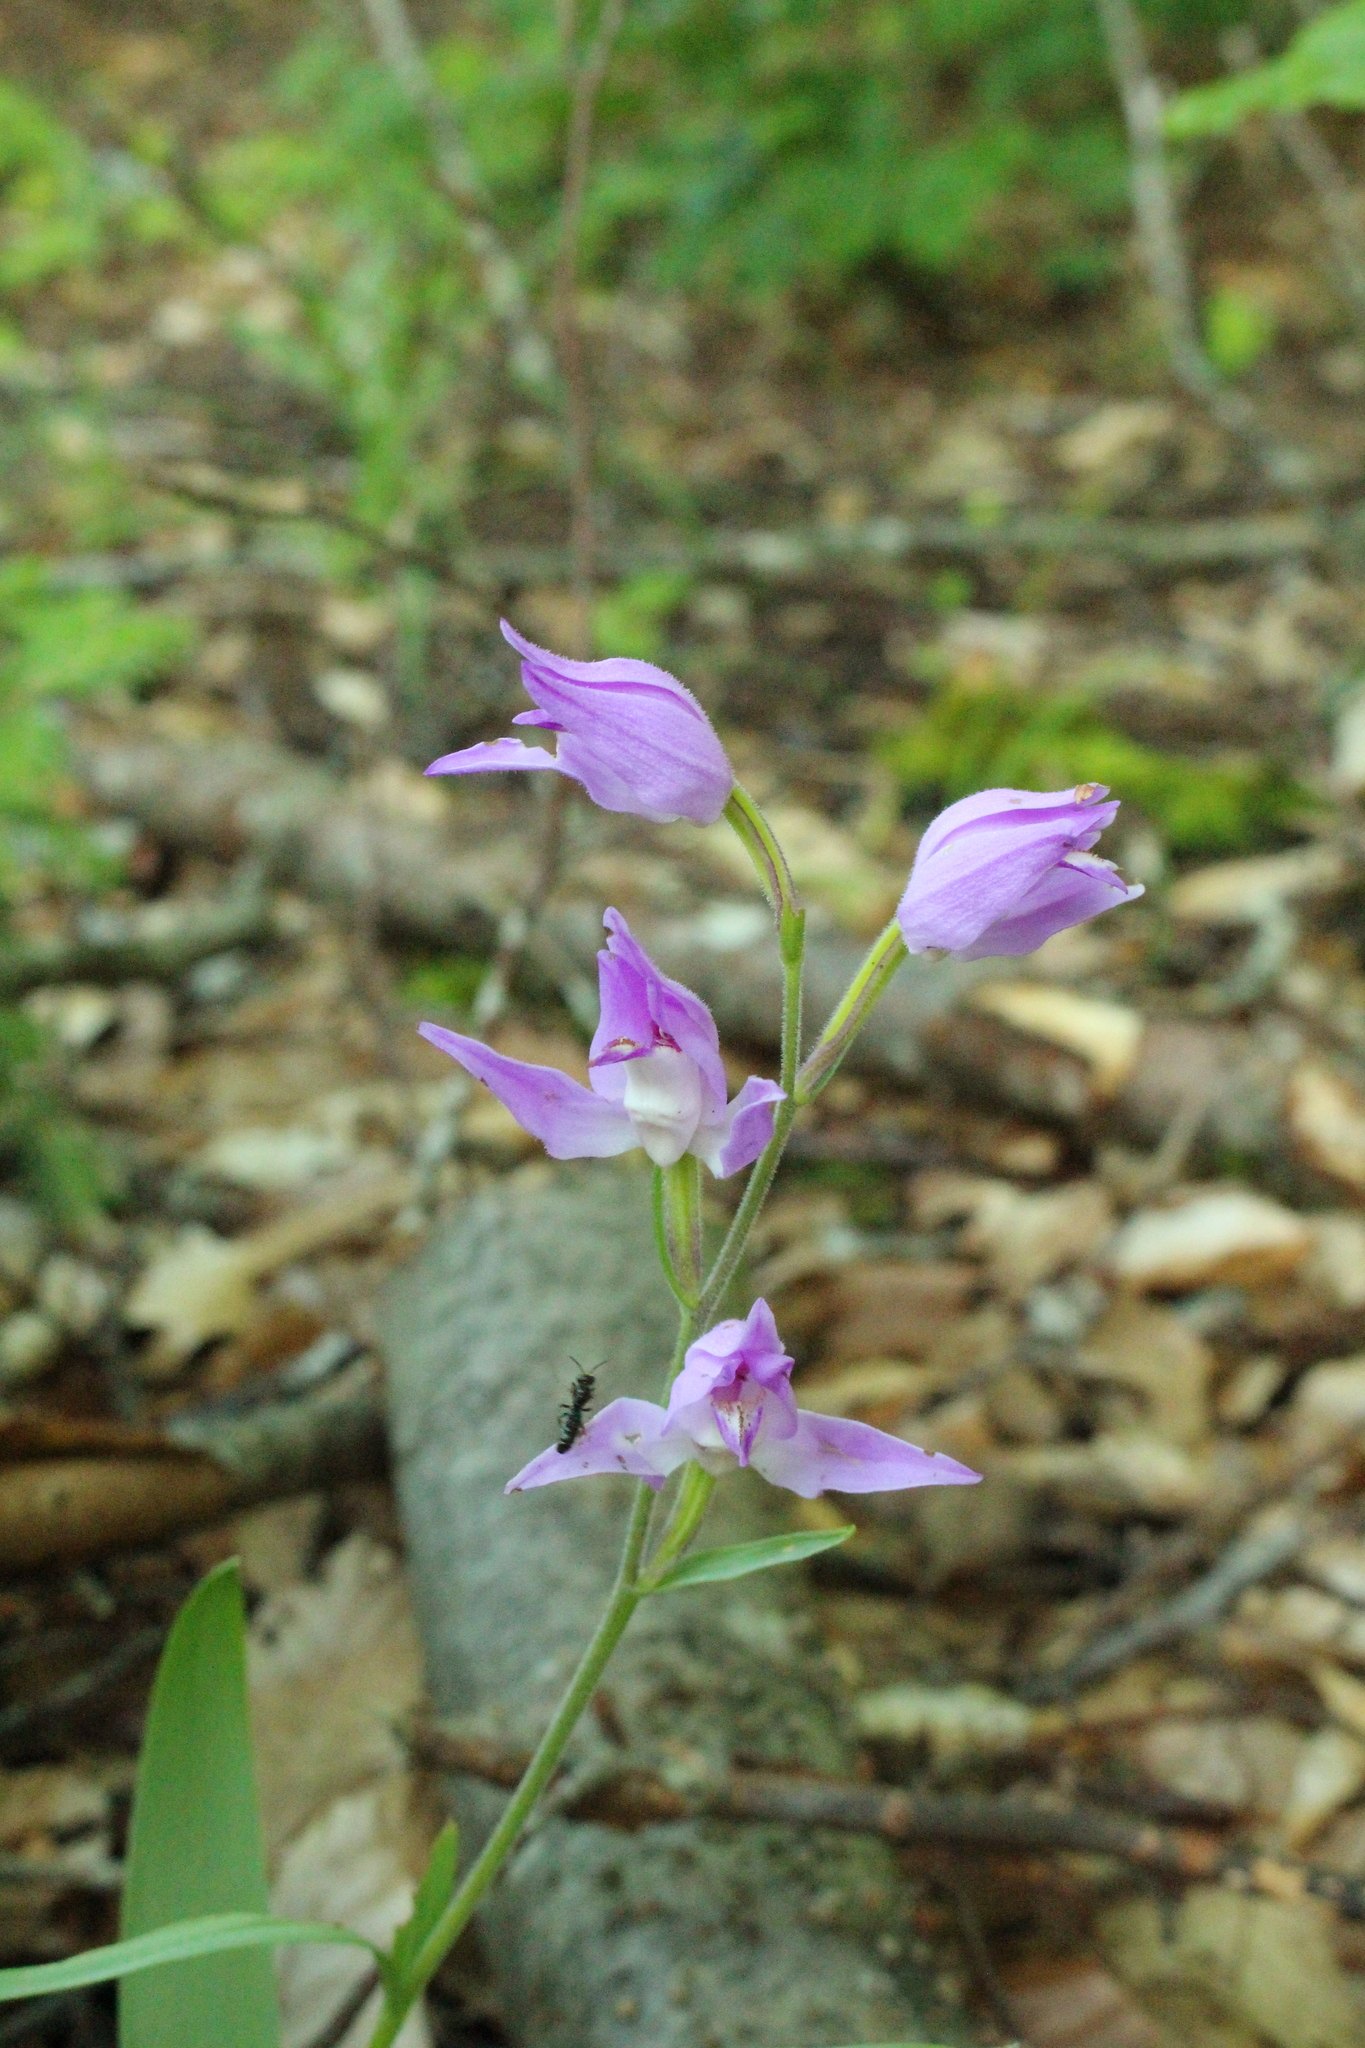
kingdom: Plantae
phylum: Tracheophyta
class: Liliopsida
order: Asparagales
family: Orchidaceae
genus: Cephalanthera
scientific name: Cephalanthera rubra
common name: Red helleborine
